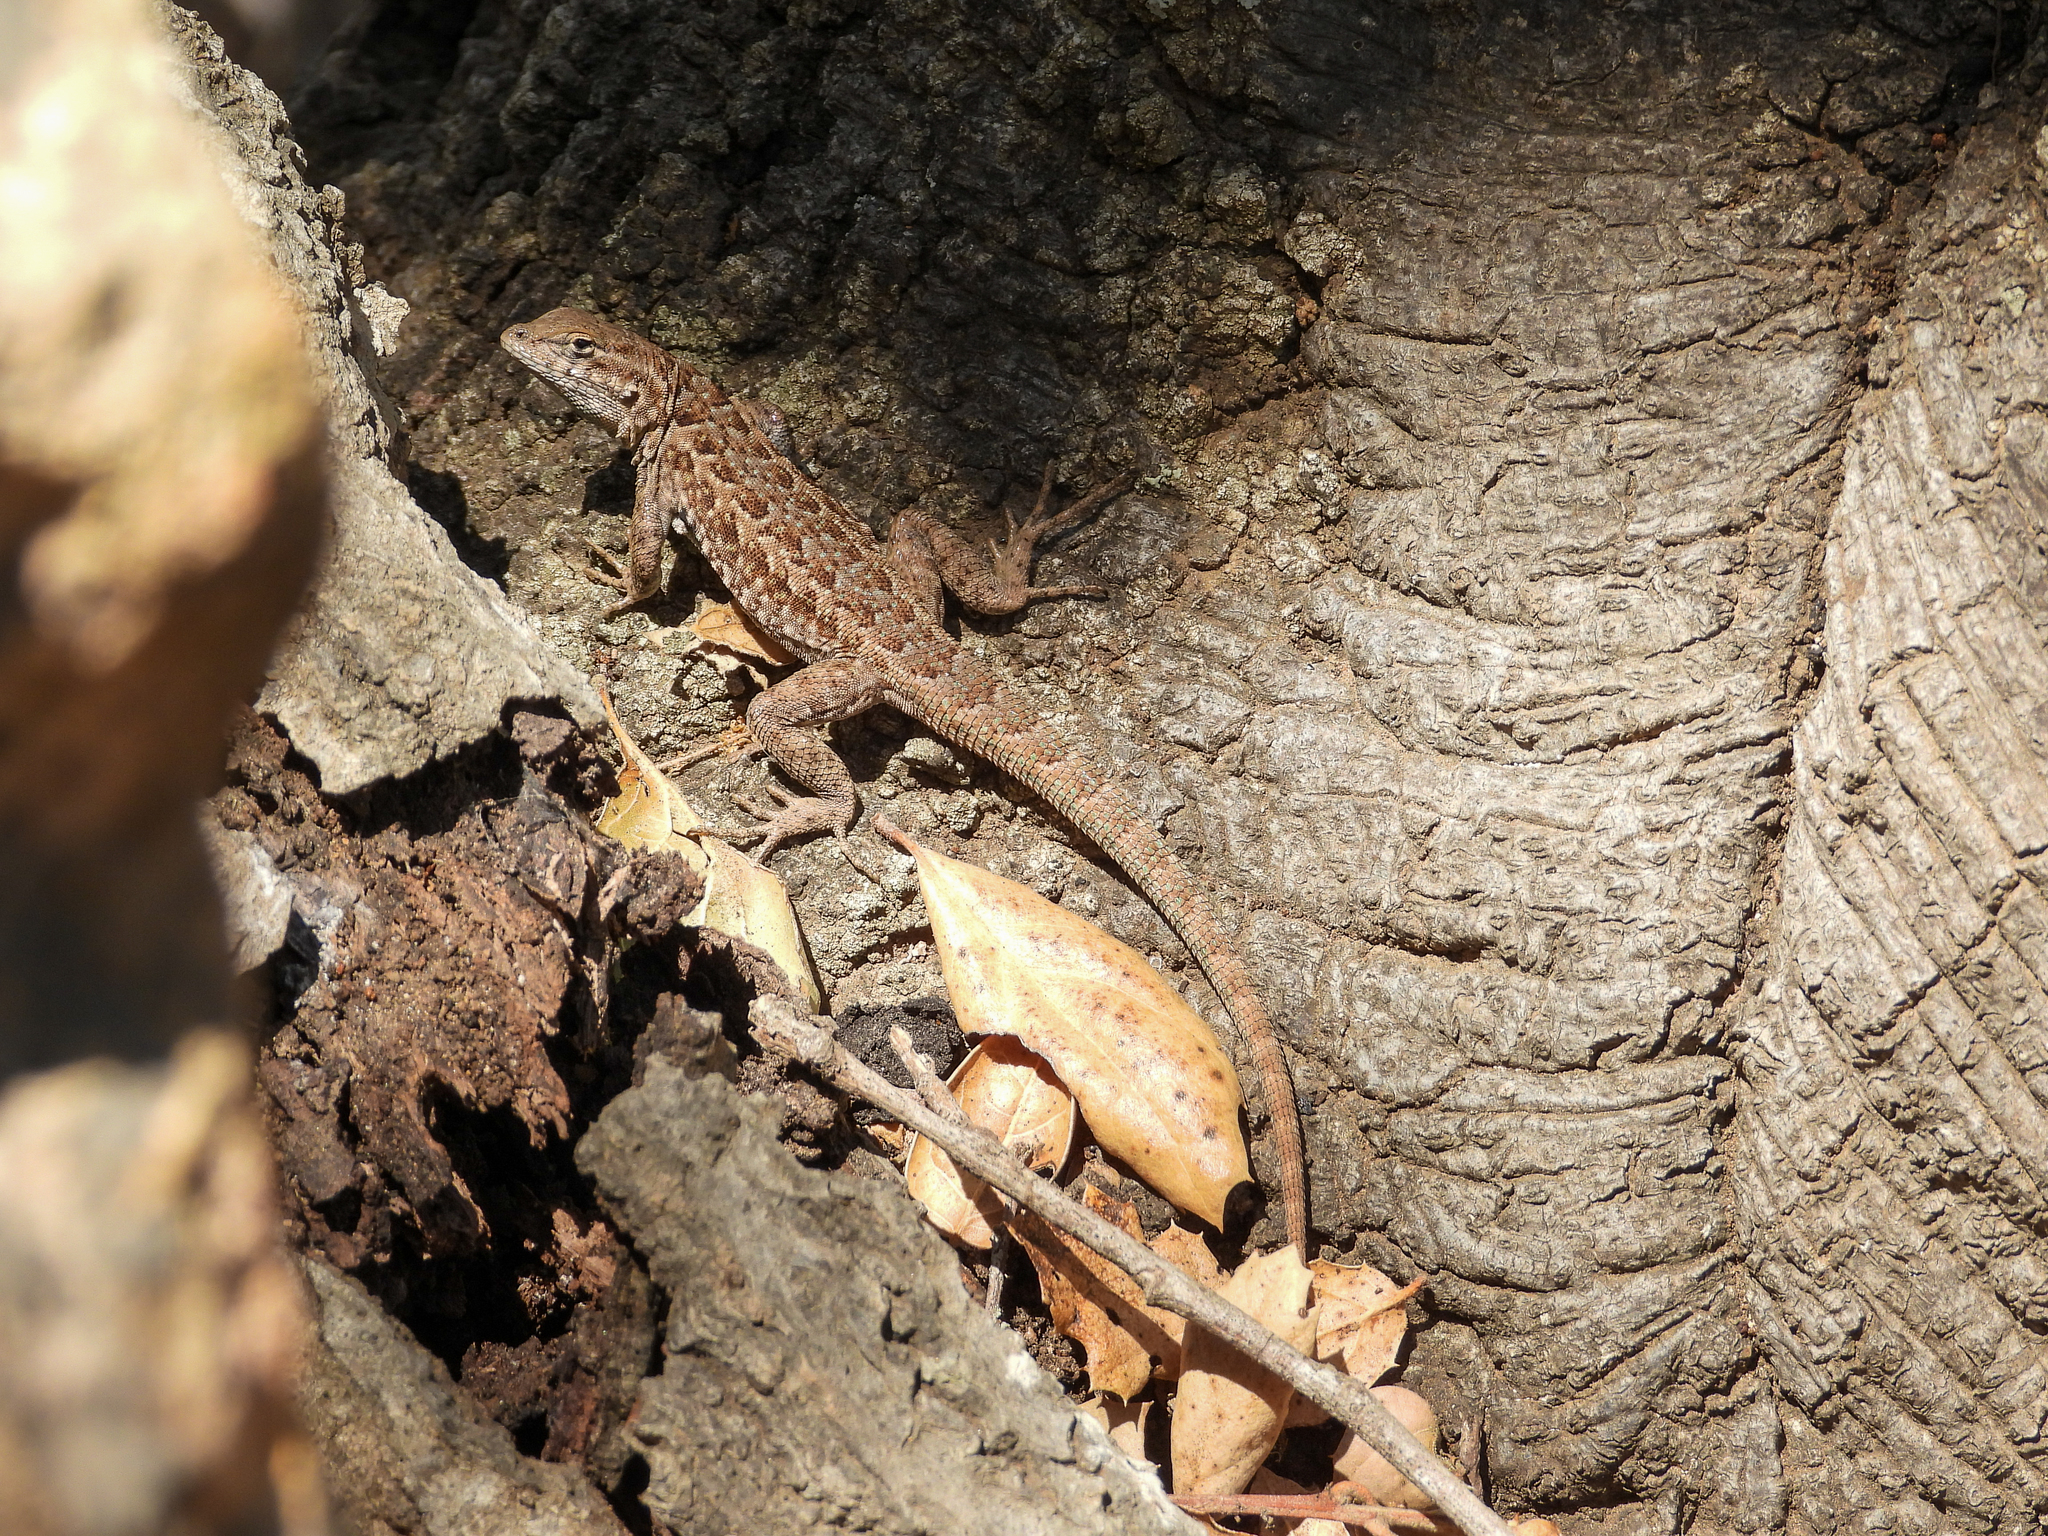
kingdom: Animalia
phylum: Chordata
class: Squamata
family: Phrynosomatidae
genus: Uta
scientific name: Uta stansburiana
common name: Side-blotched lizard
